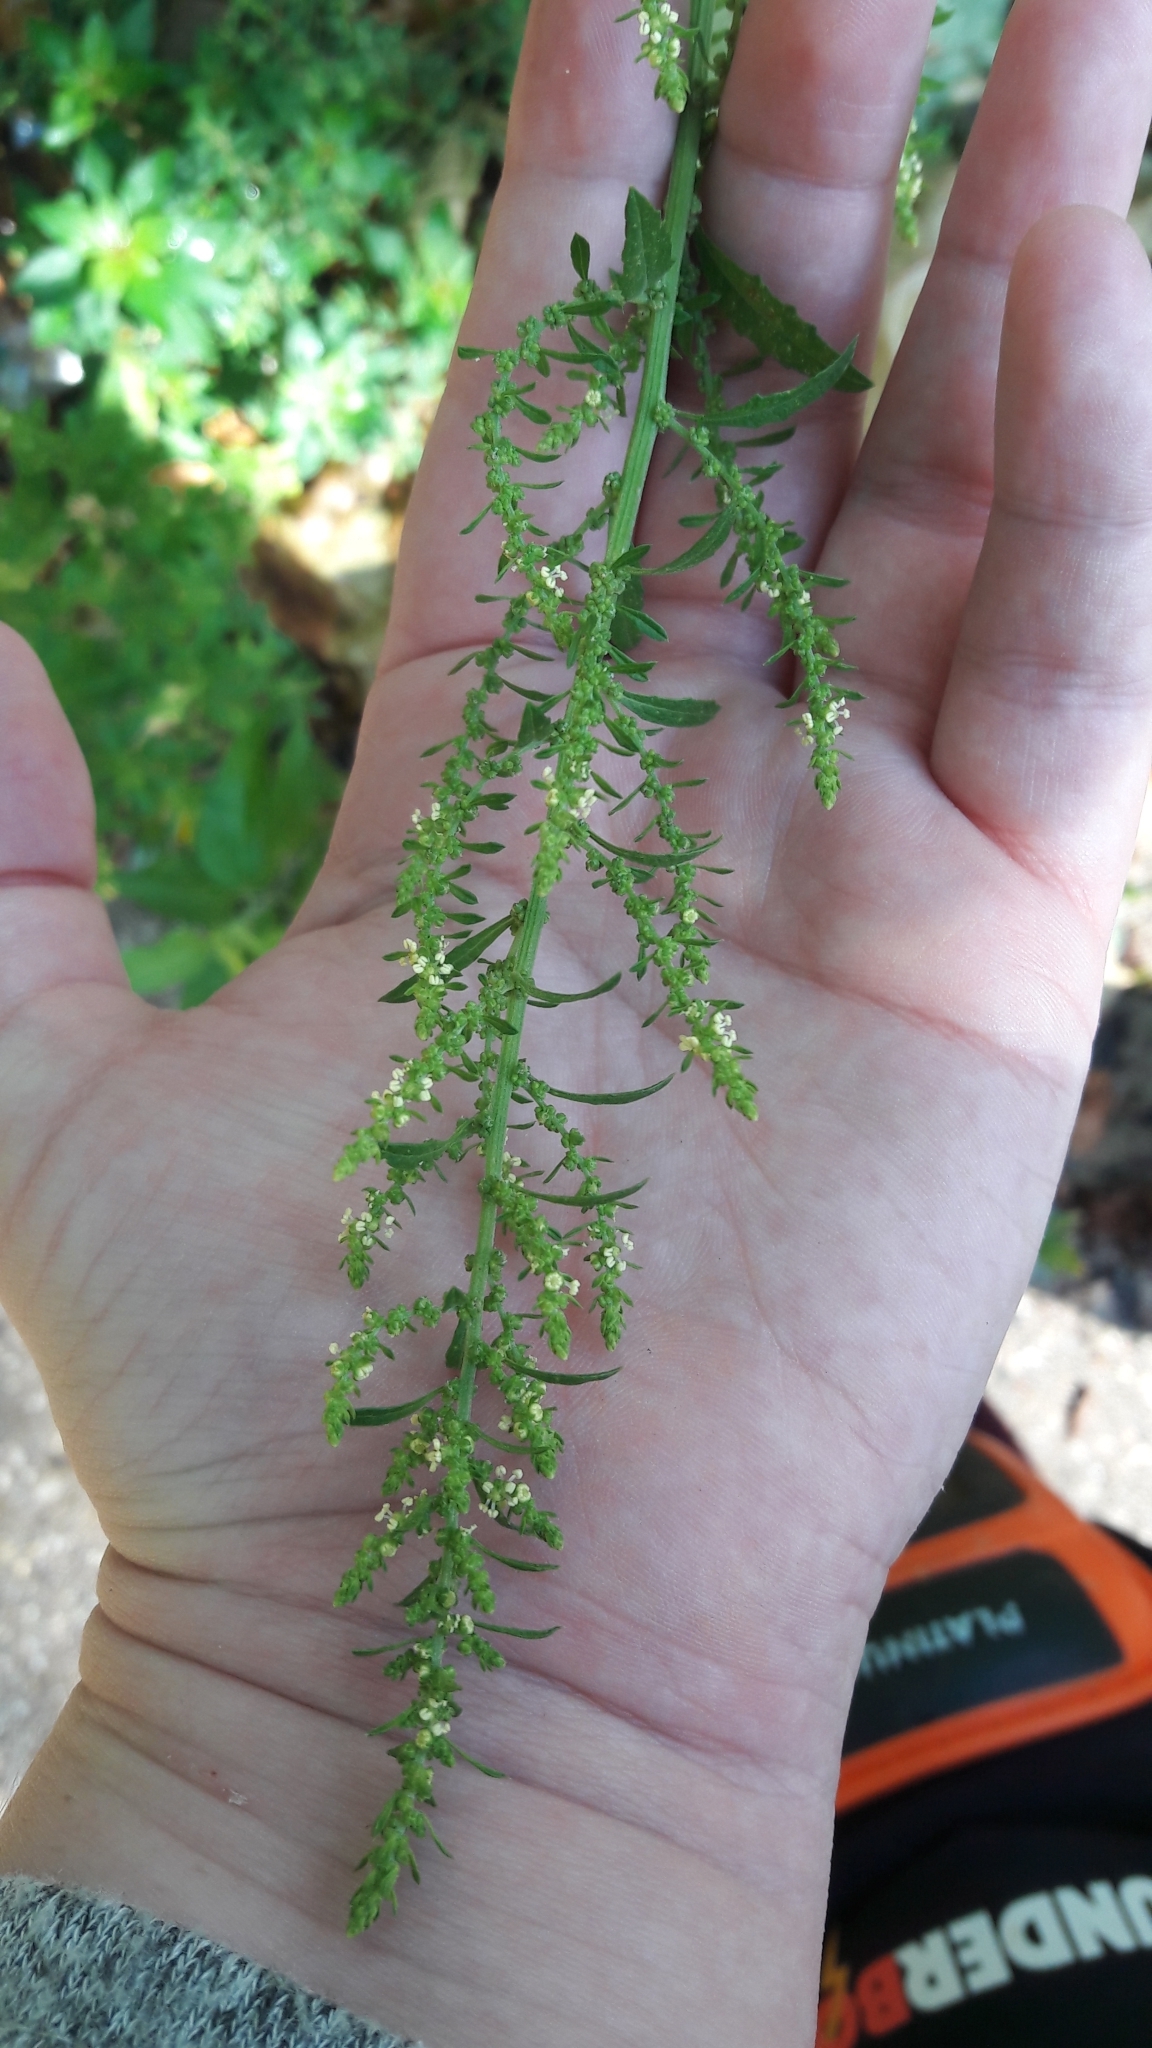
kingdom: Plantae
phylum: Tracheophyta
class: Magnoliopsida
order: Caryophyllales
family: Amaranthaceae
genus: Dysphania
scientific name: Dysphania ambrosioides
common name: Wormseed
